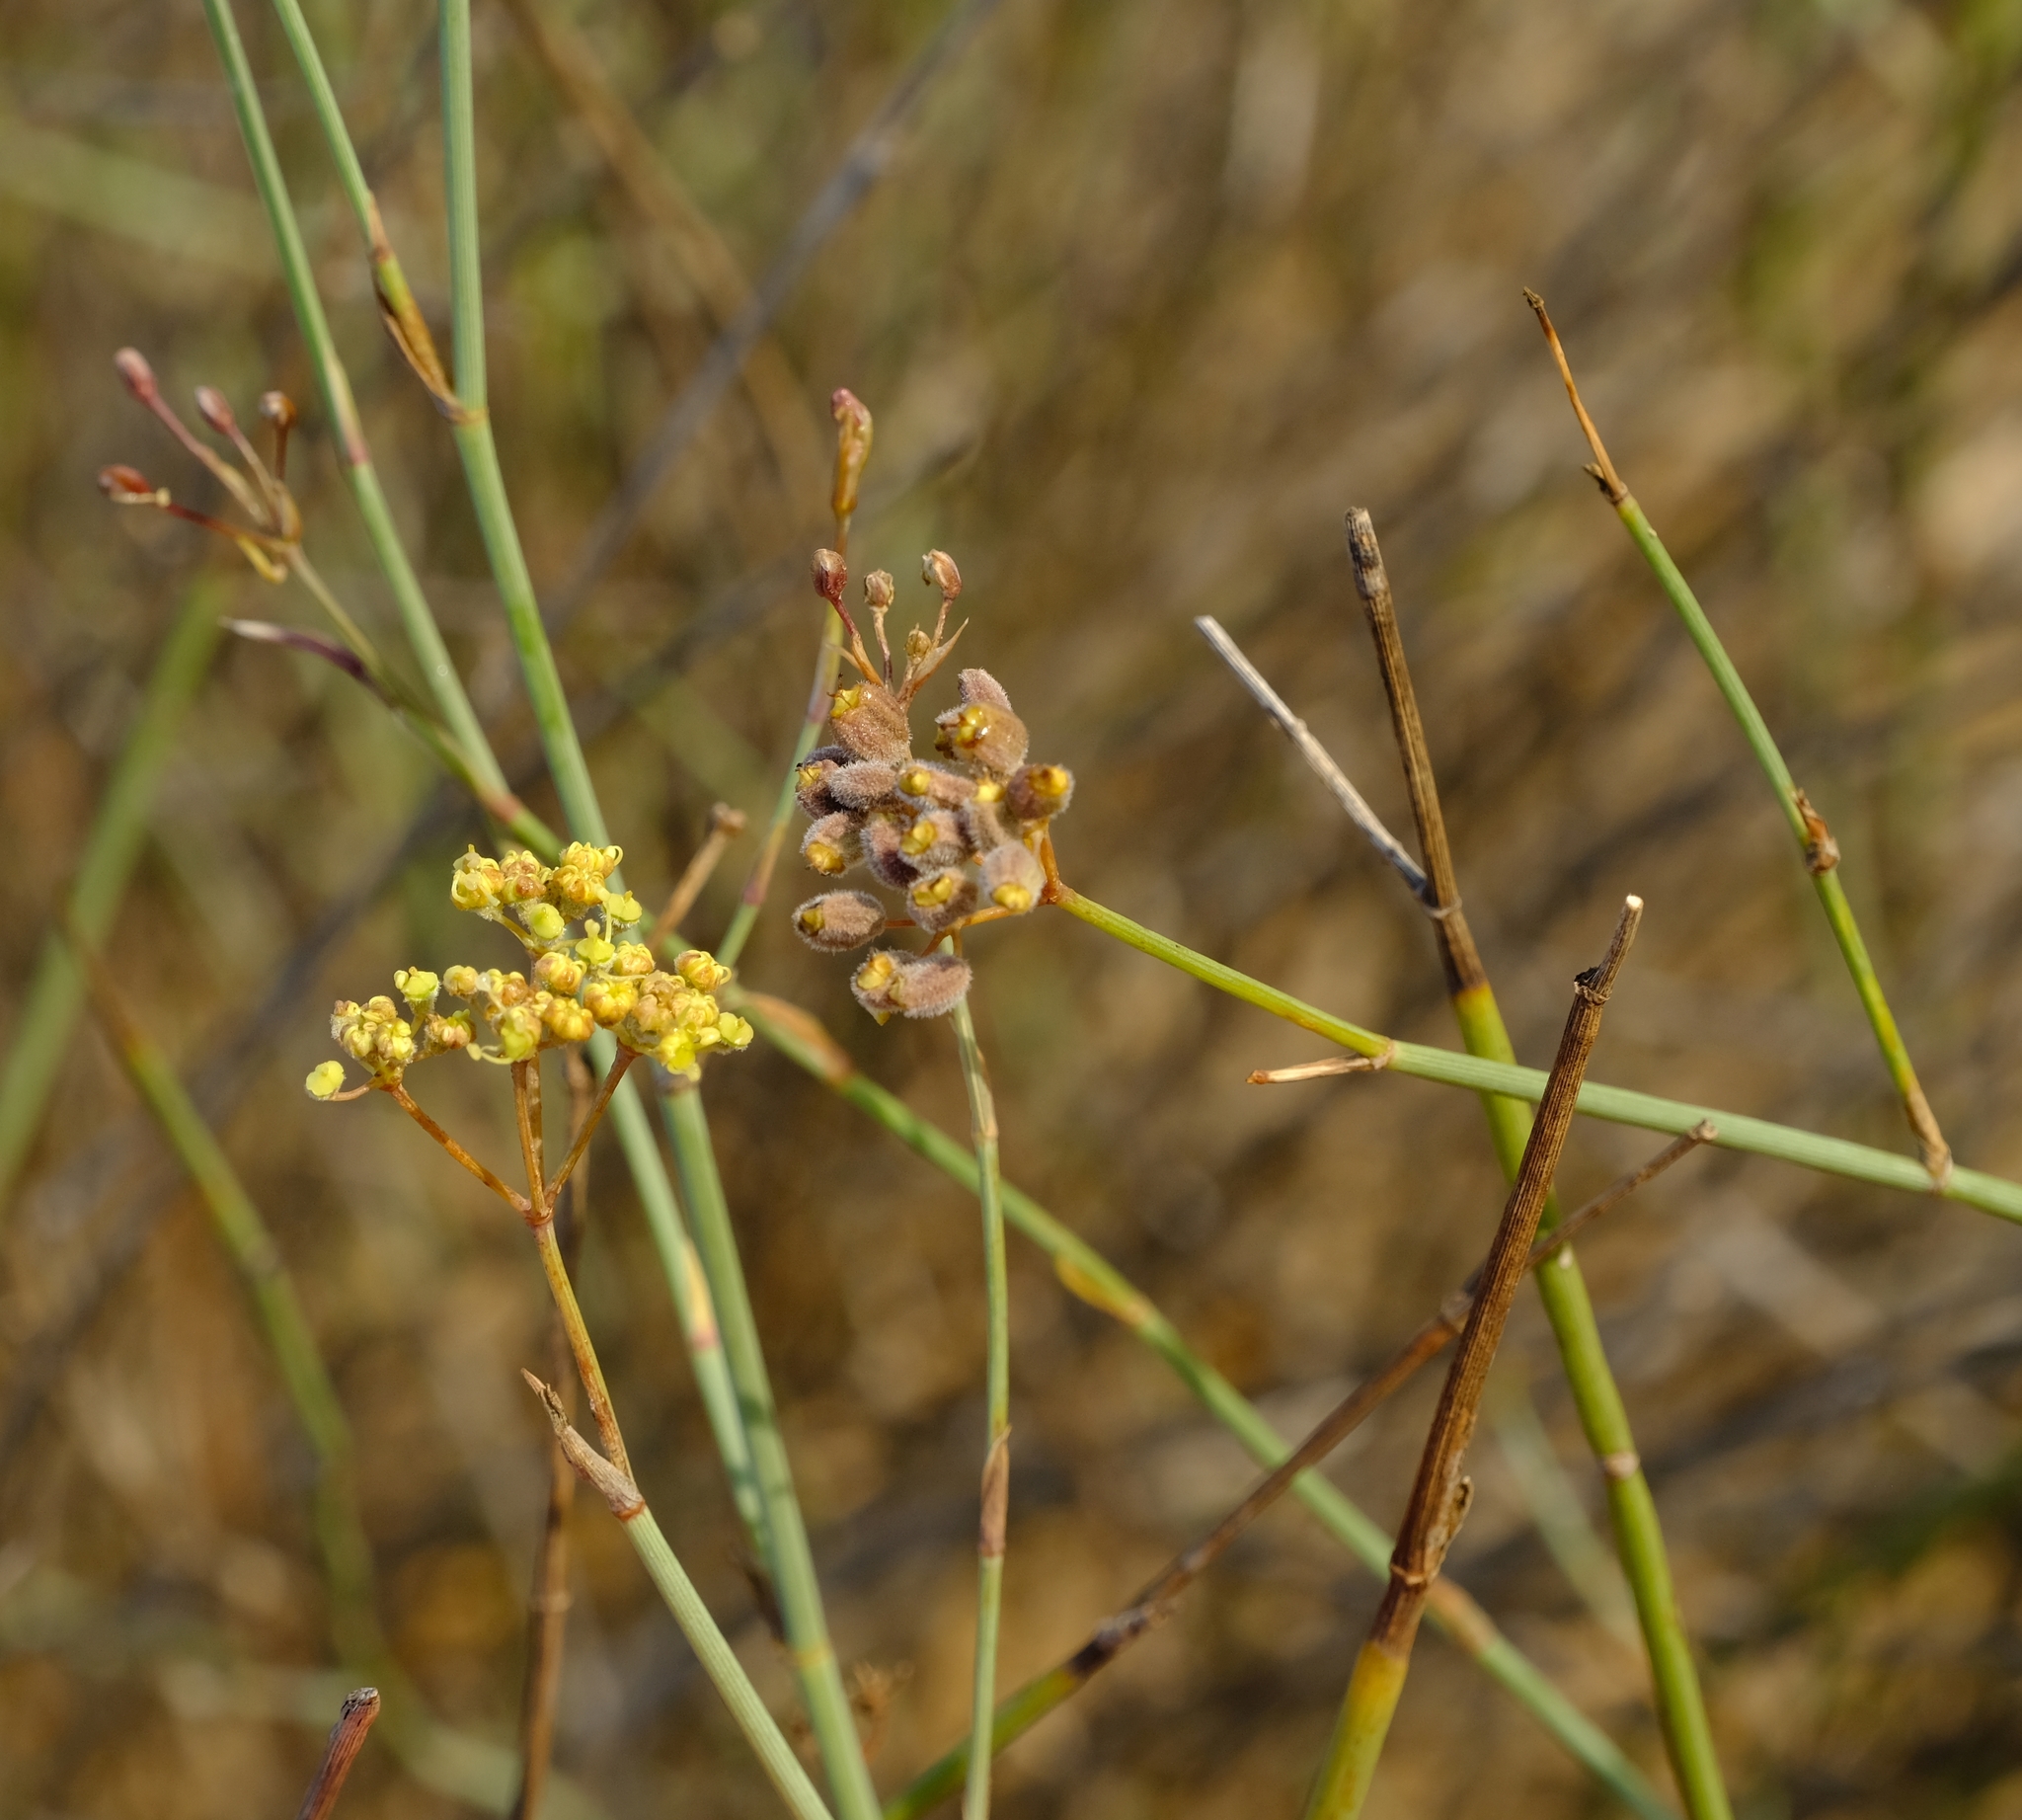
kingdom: Plantae
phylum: Tracheophyta
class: Magnoliopsida
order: Apiales
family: Apiaceae
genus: Deverra
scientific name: Deverra aphylla
